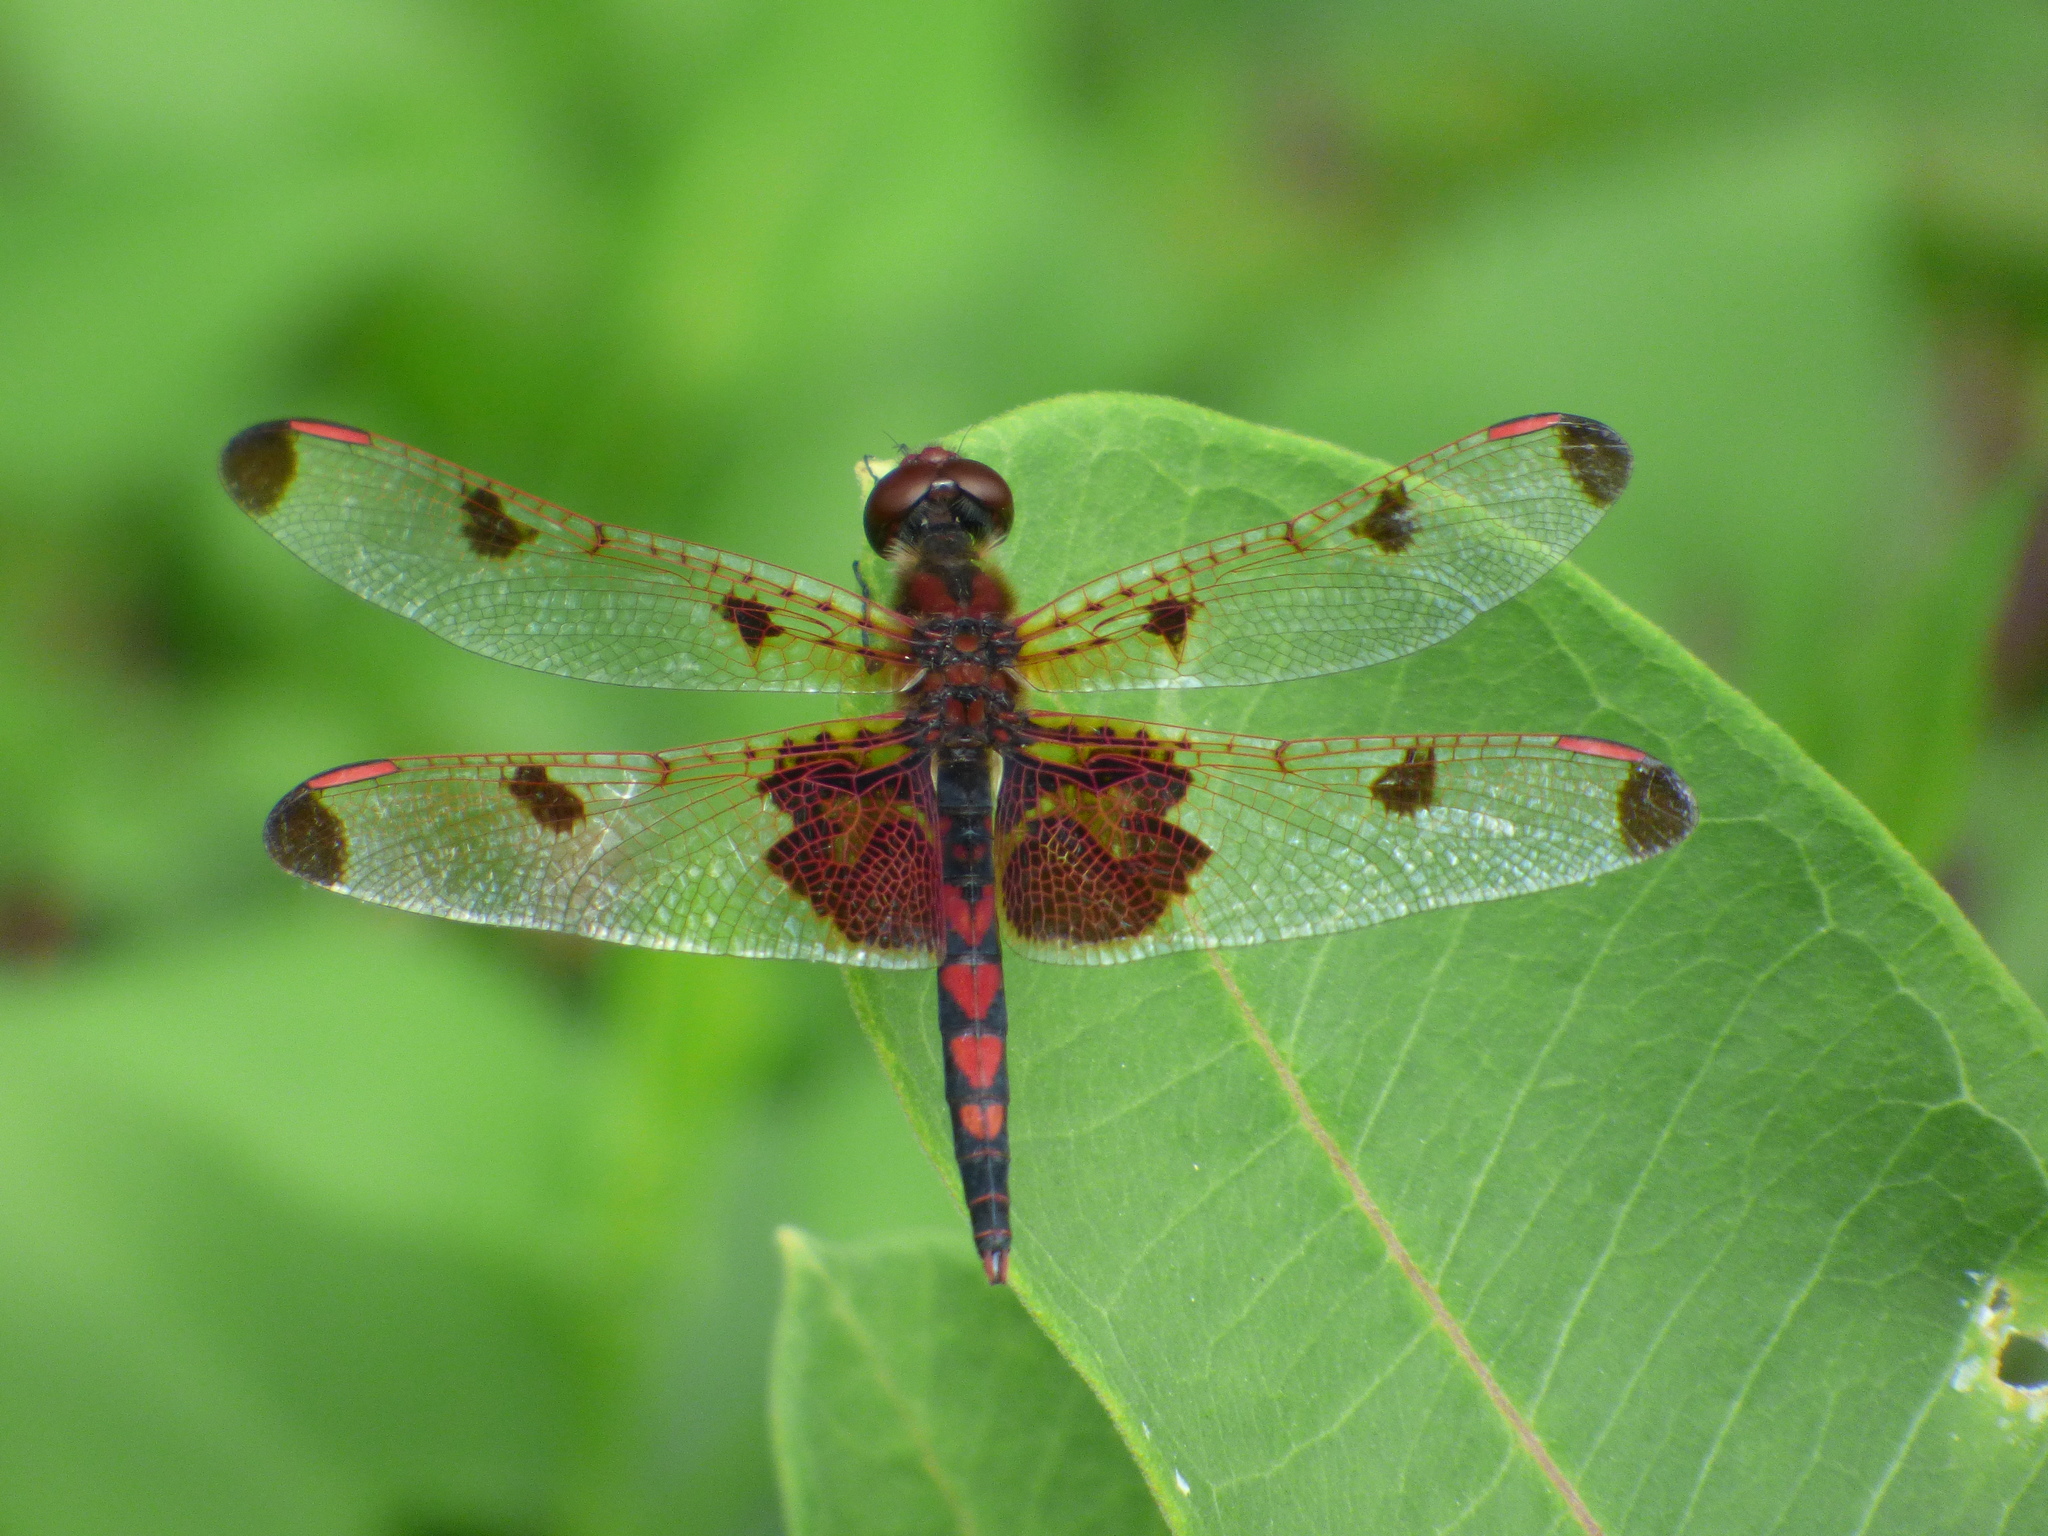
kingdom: Animalia
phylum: Arthropoda
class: Insecta
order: Odonata
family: Libellulidae
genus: Celithemis
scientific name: Celithemis elisa
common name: Calico pennant
